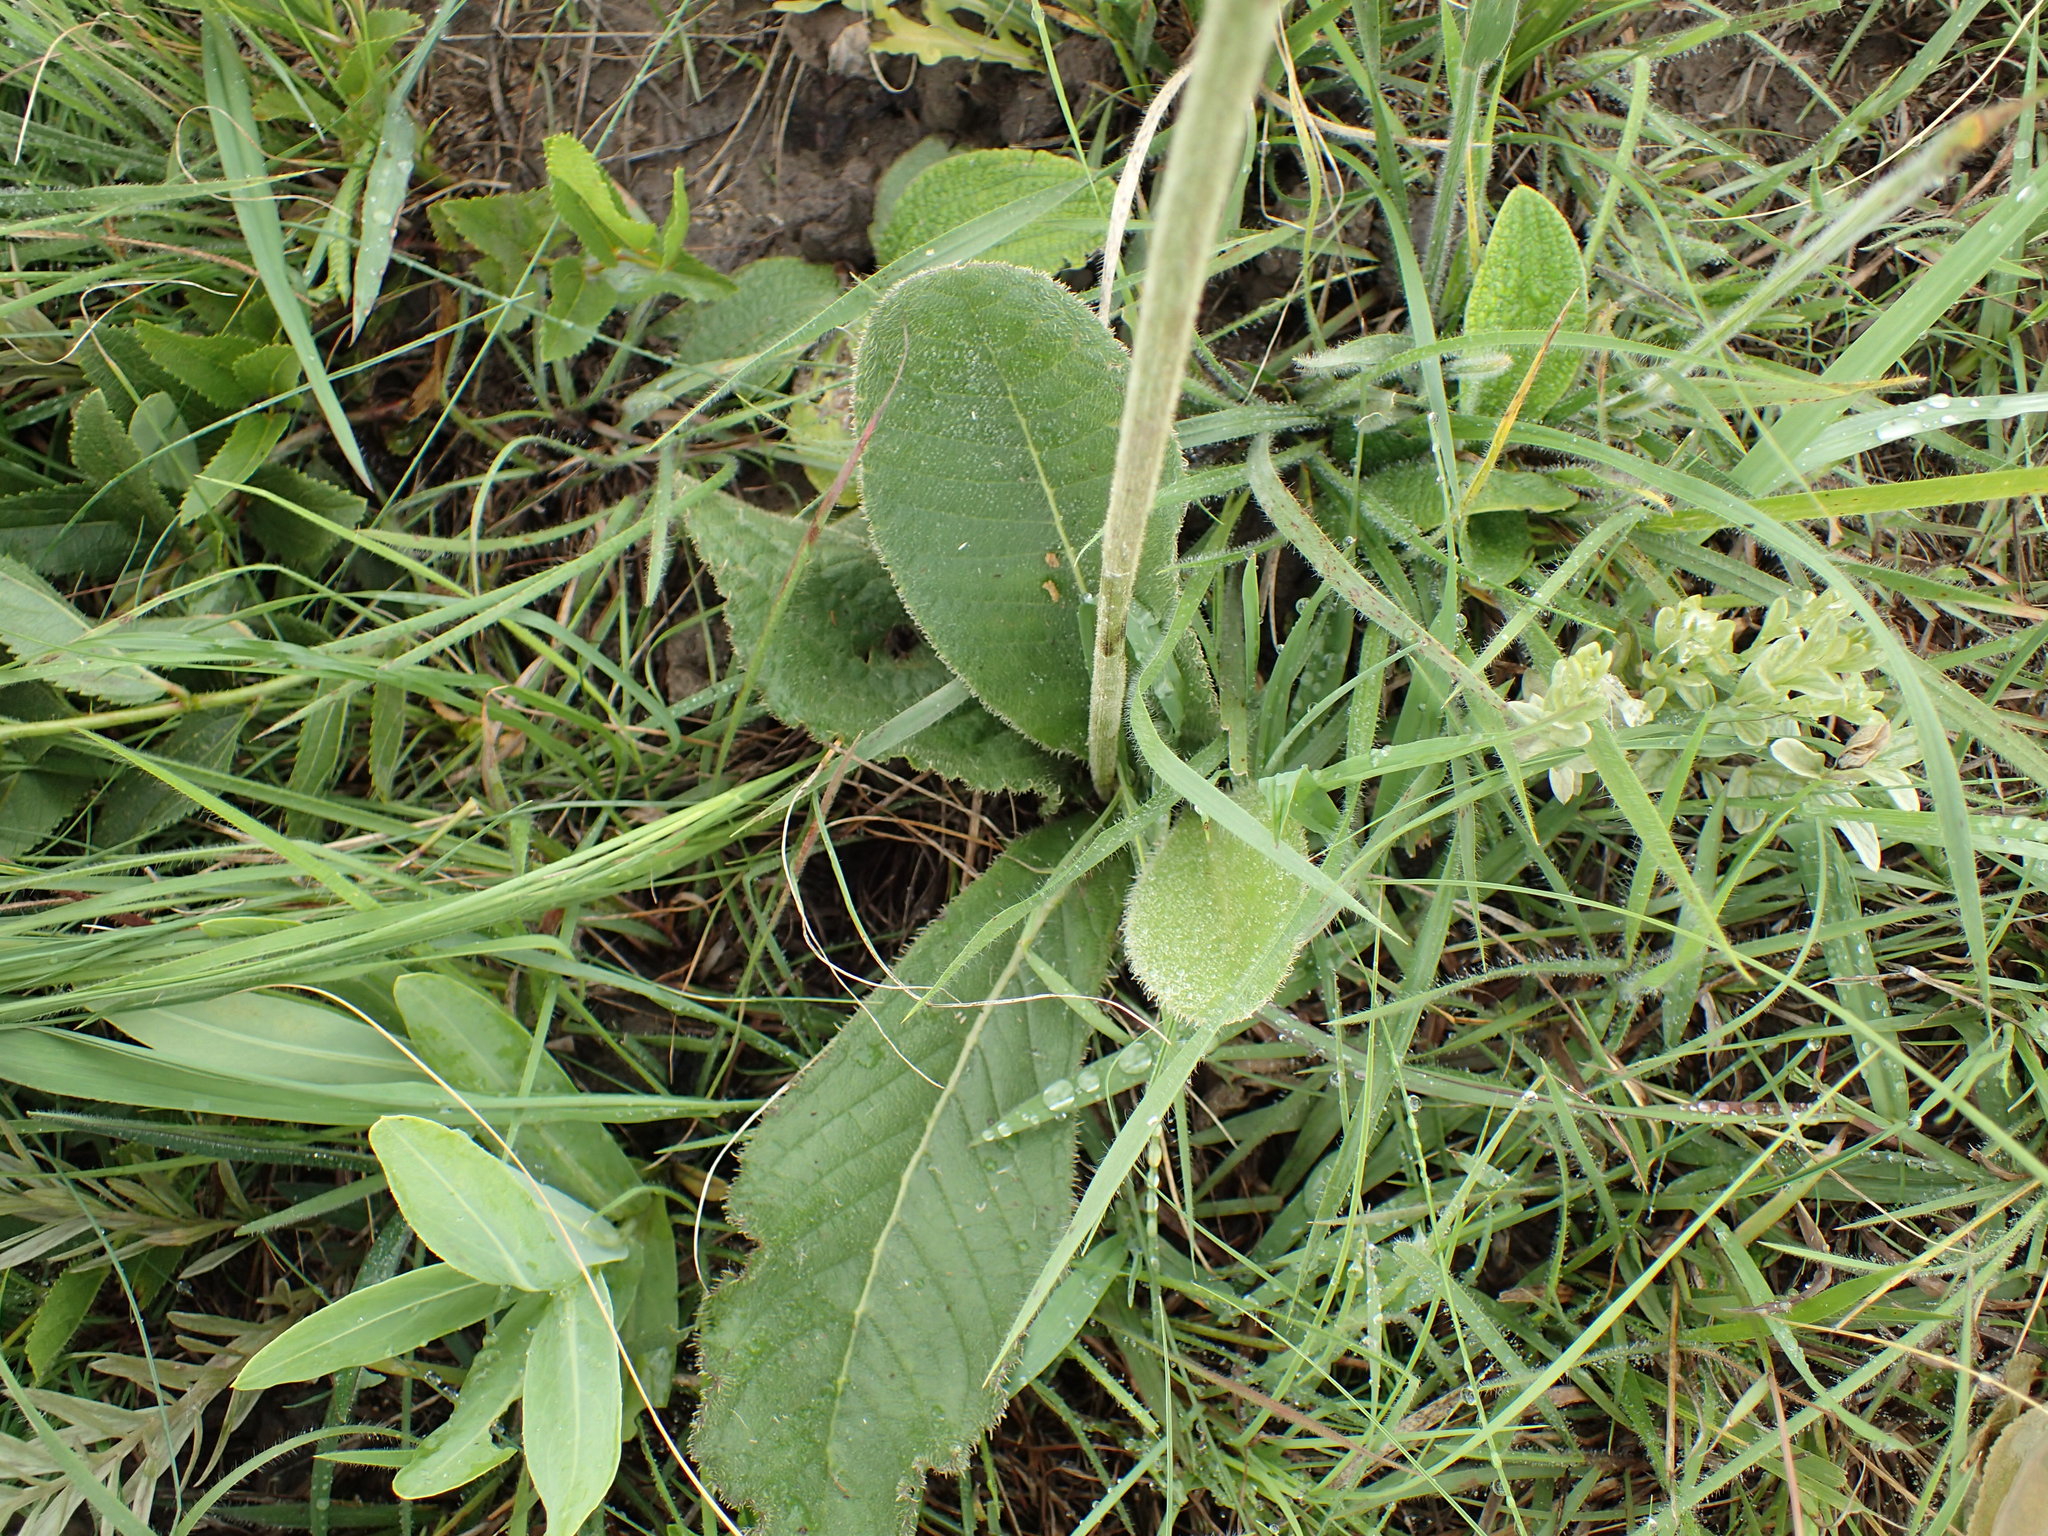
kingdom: Plantae
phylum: Tracheophyta
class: Magnoliopsida
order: Asterales
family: Asteraceae
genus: Berkheya
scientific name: Berkheya setifera
